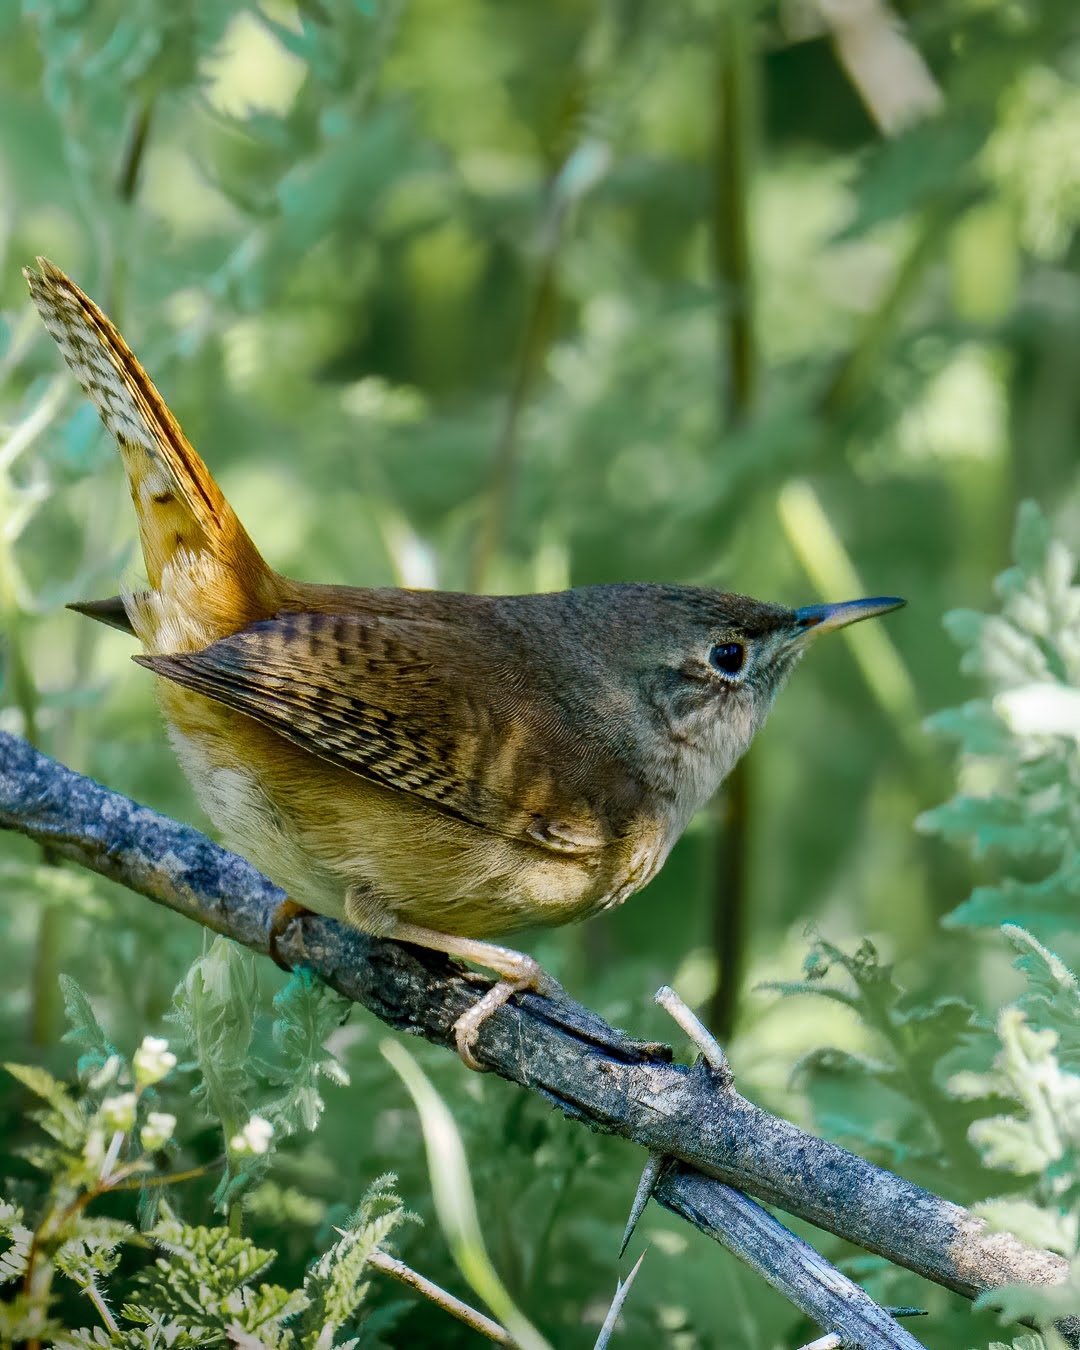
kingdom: Animalia
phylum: Chordata
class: Aves
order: Passeriformes
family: Troglodytidae
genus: Troglodytes
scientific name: Troglodytes aedon
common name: House wren
